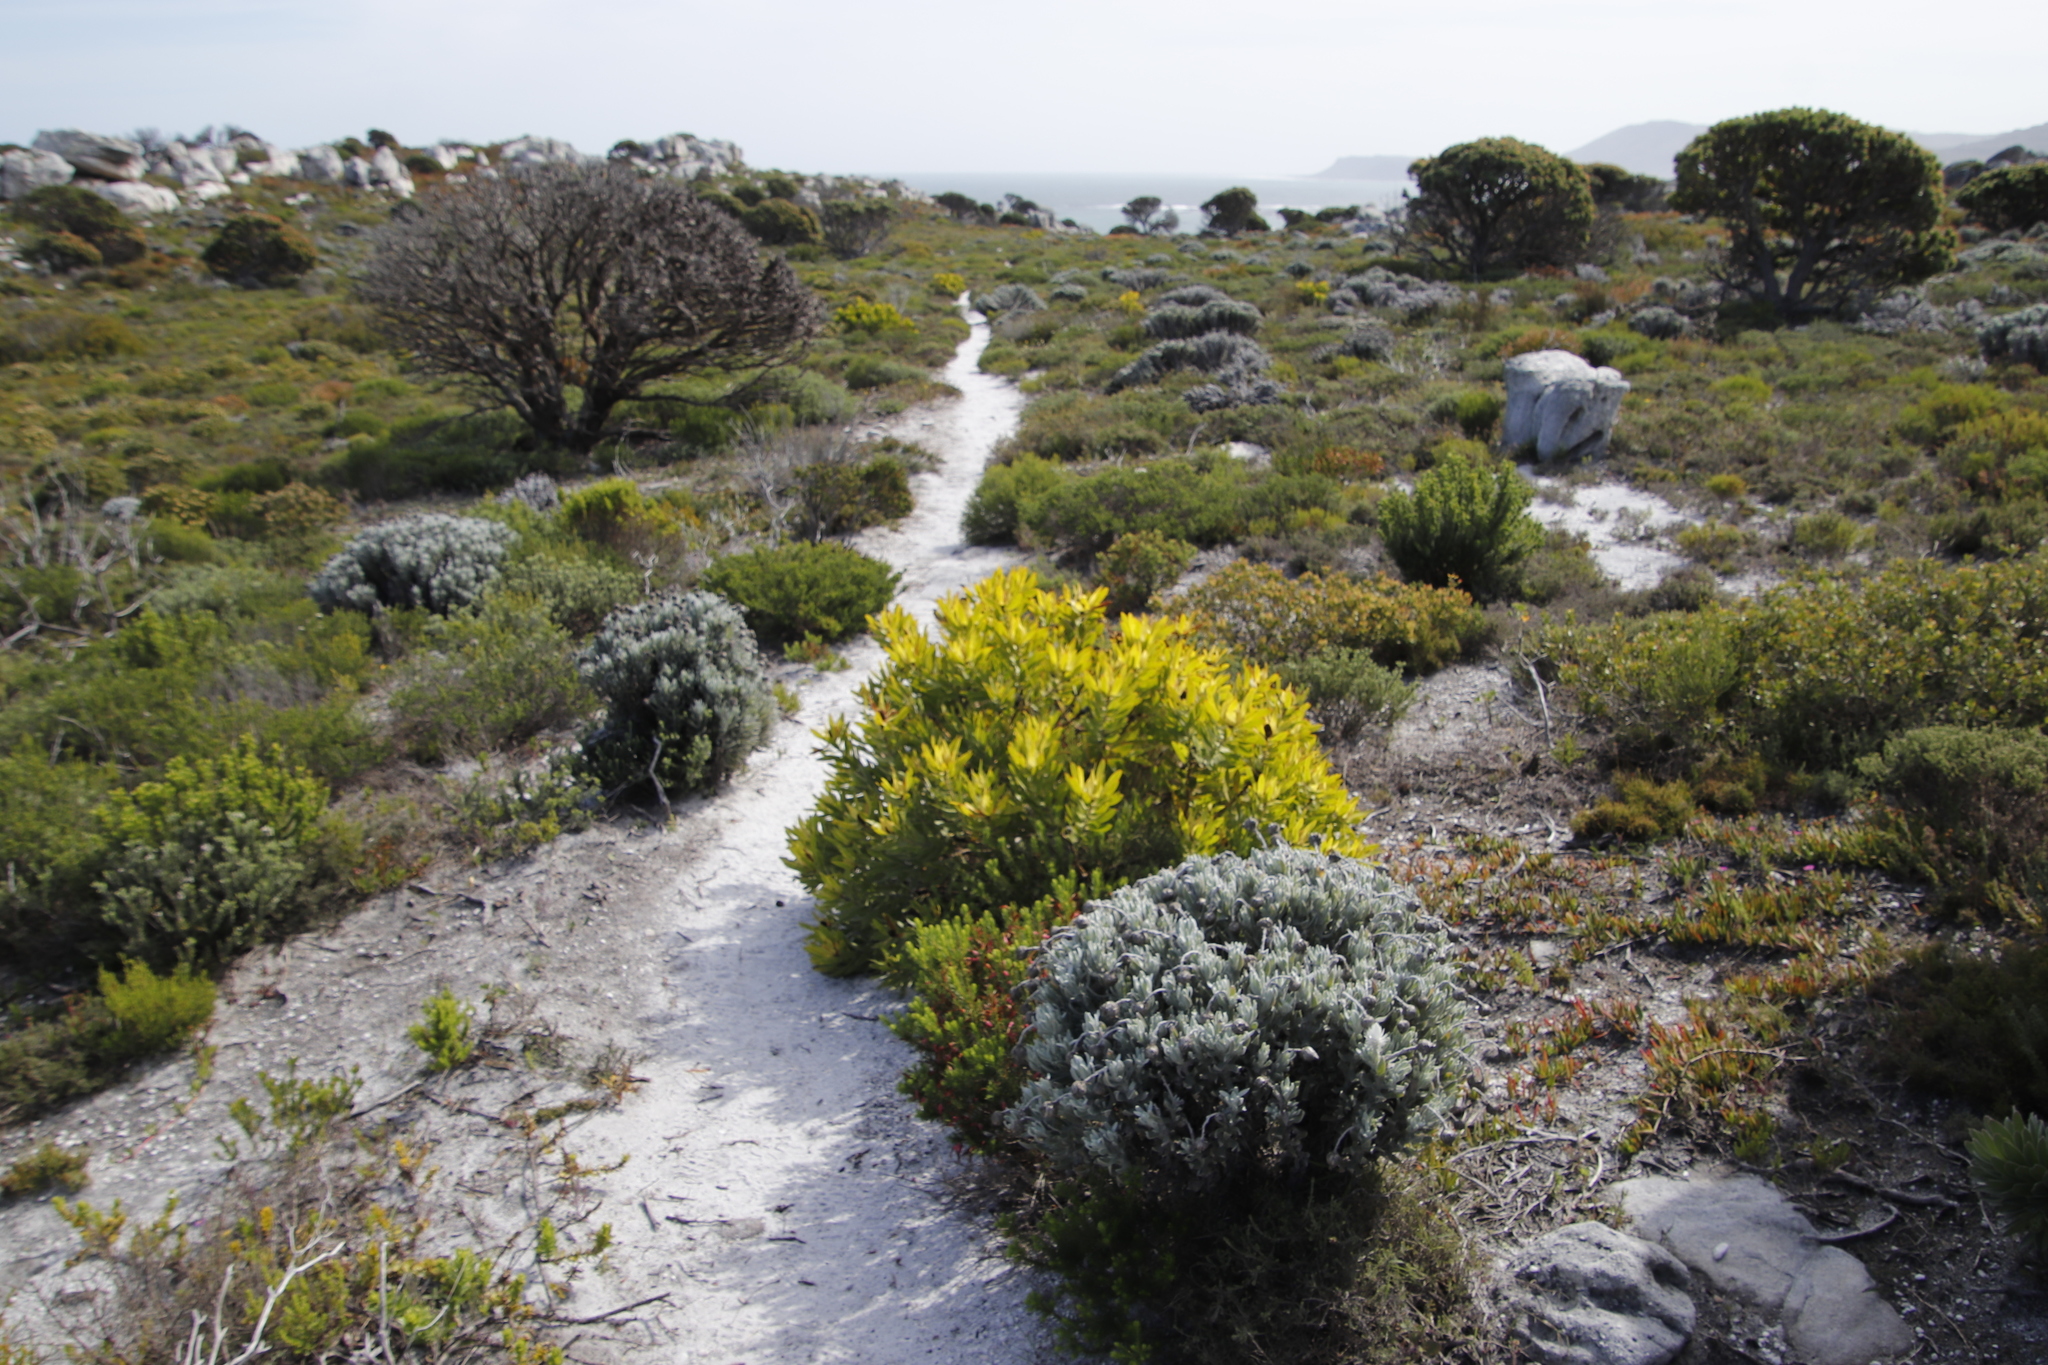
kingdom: Plantae
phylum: Tracheophyta
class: Magnoliopsida
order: Proteales
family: Proteaceae
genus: Leucadendron
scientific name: Leucadendron laureolum
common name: Golden sunshinebush
